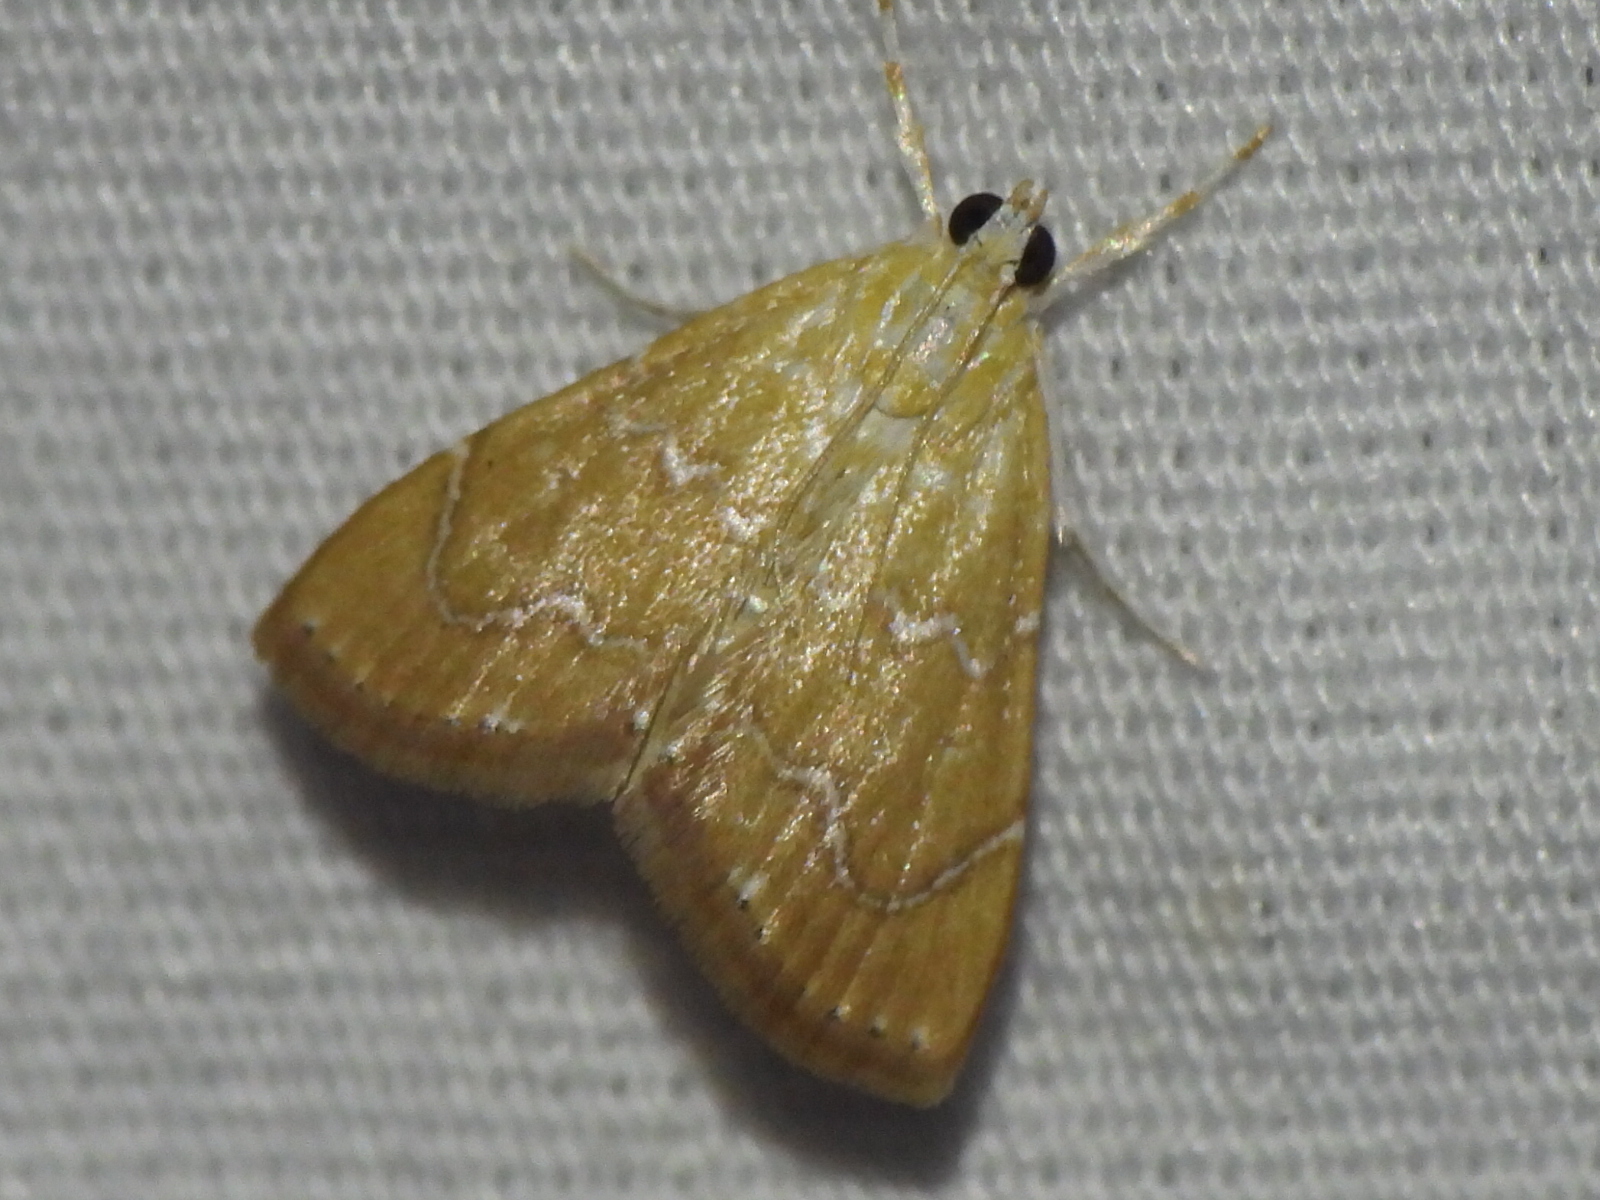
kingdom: Animalia
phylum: Arthropoda
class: Insecta
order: Lepidoptera
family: Crambidae
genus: Glaphyria
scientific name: Glaphyria sesquistrialis
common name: White-roped glaphyria
